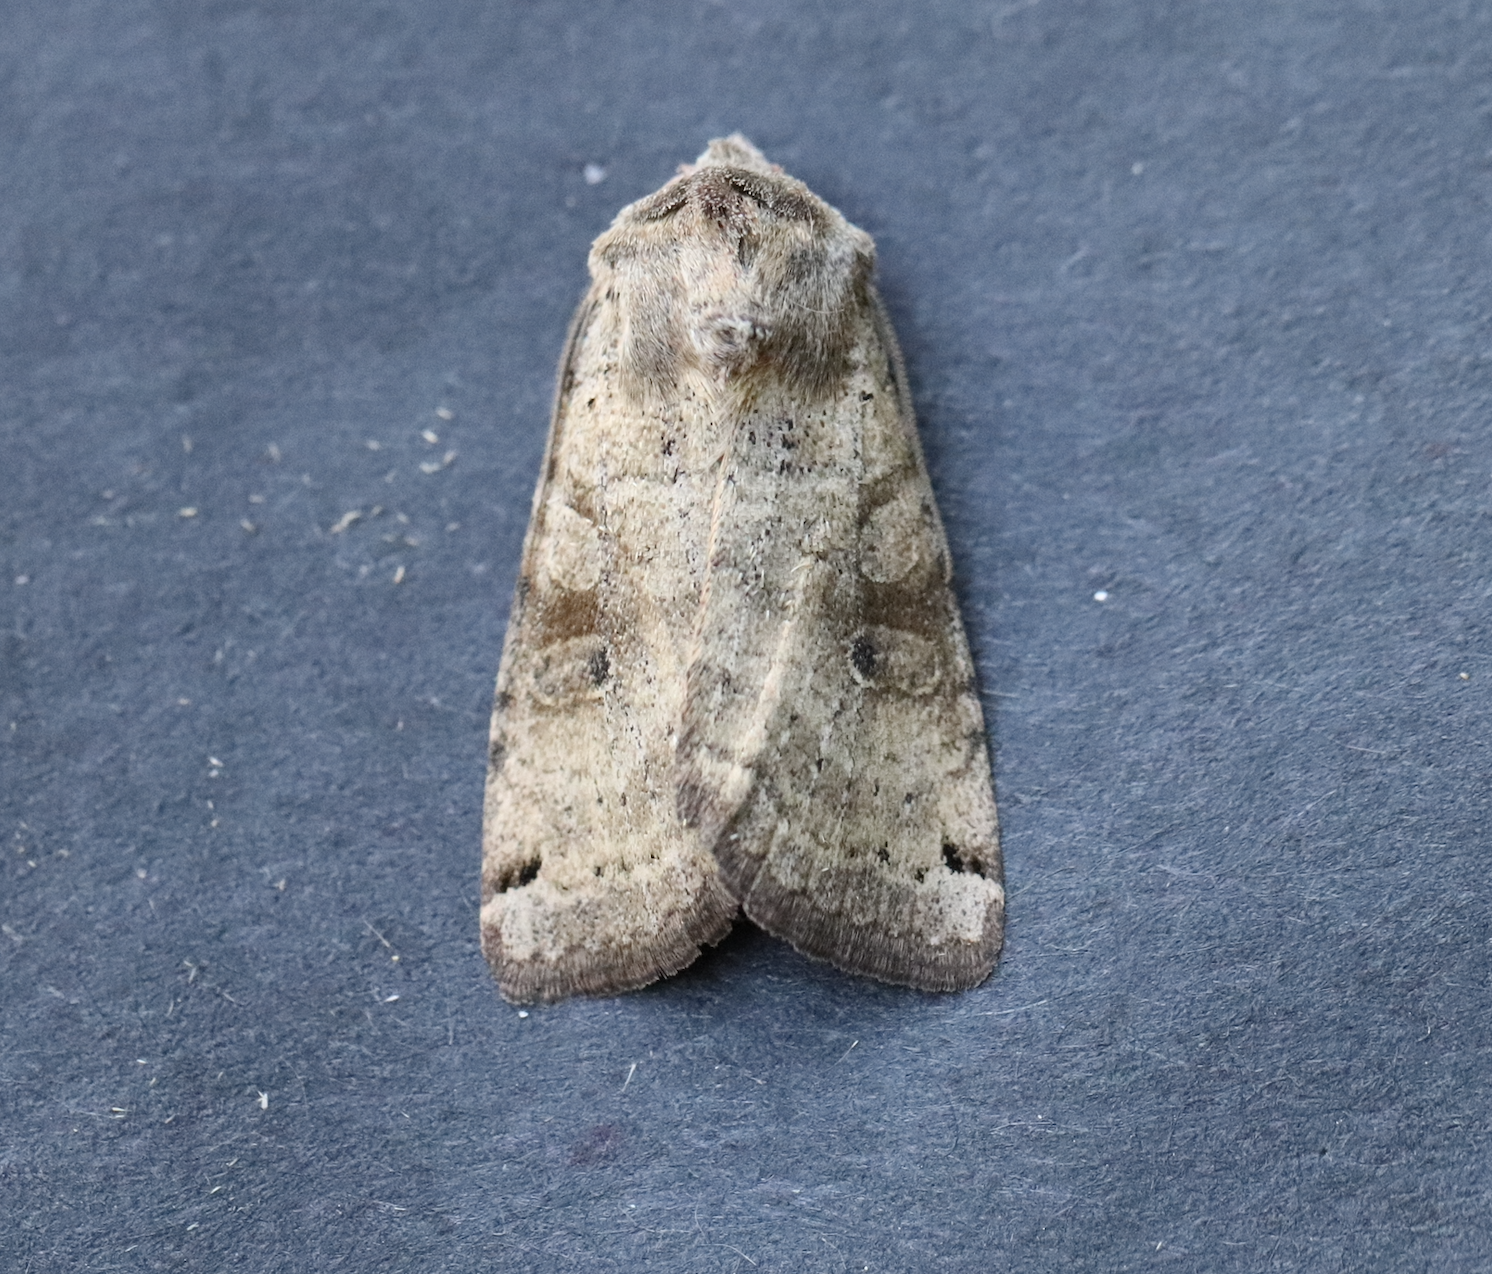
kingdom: Animalia
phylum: Arthropoda
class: Insecta
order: Lepidoptera
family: Noctuidae
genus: Xestia
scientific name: Xestia smithii
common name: Smith's dart
